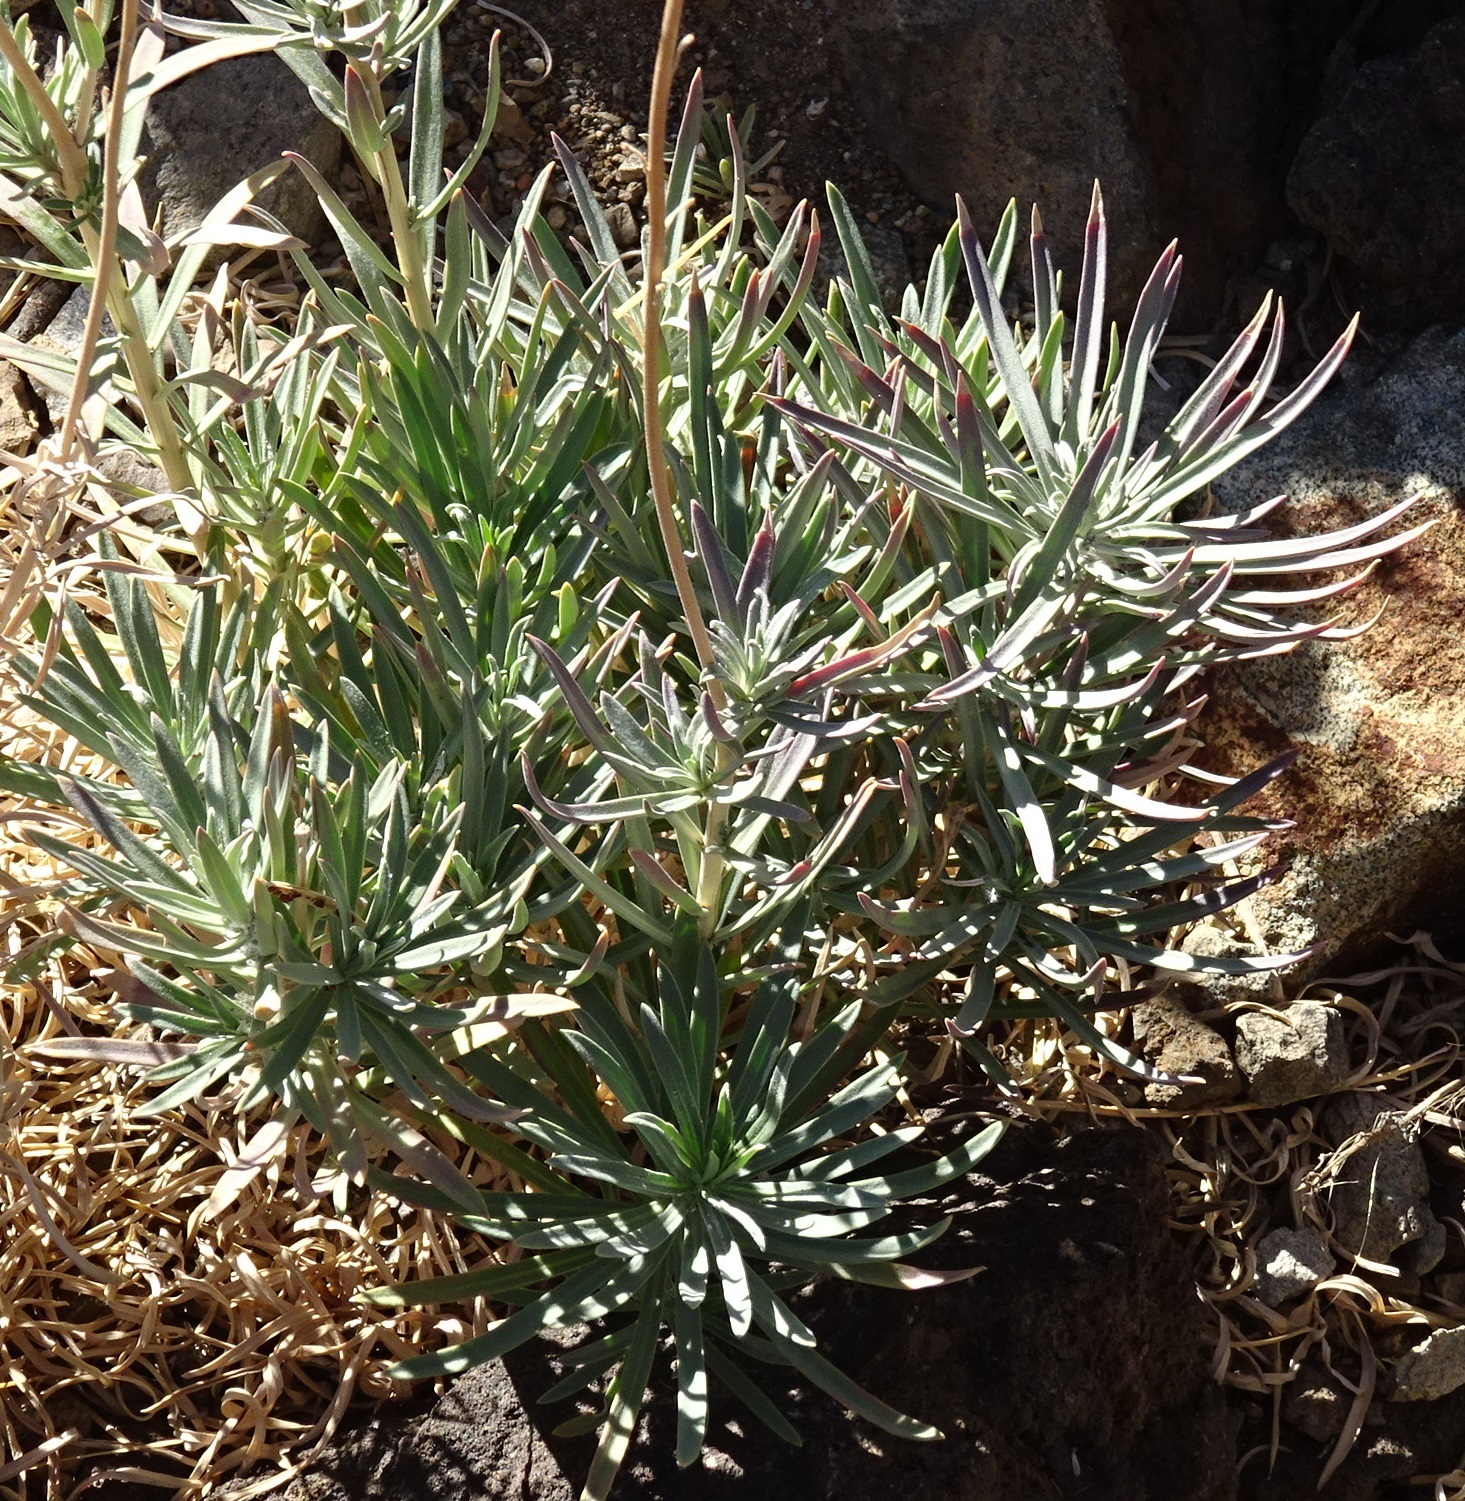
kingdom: Plantae
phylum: Tracheophyta
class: Magnoliopsida
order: Brassicales
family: Brassicaceae
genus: Erysimum
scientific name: Erysimum scoparium
